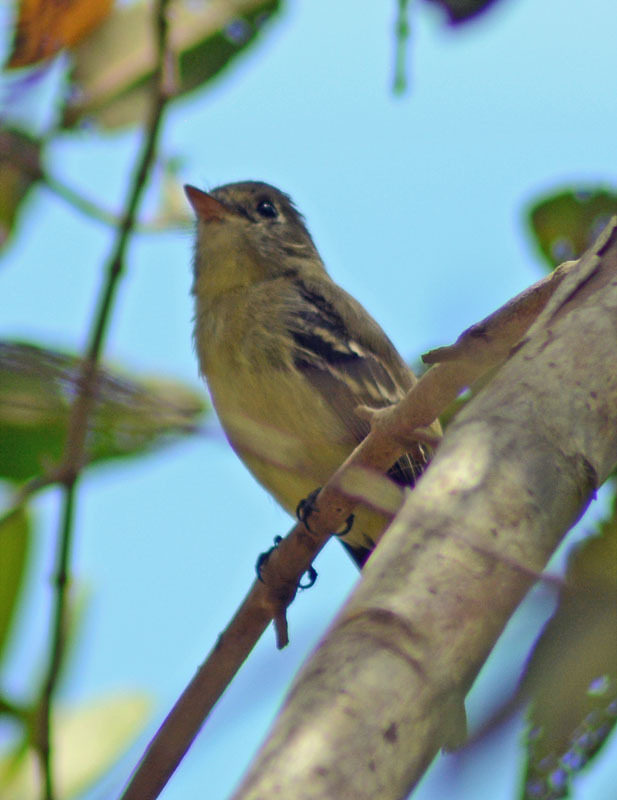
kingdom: Animalia
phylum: Chordata
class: Aves
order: Passeriformes
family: Tyrannidae
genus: Empidonax
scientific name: Empidonax difficilis
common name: Pacific-slope flycatcher
